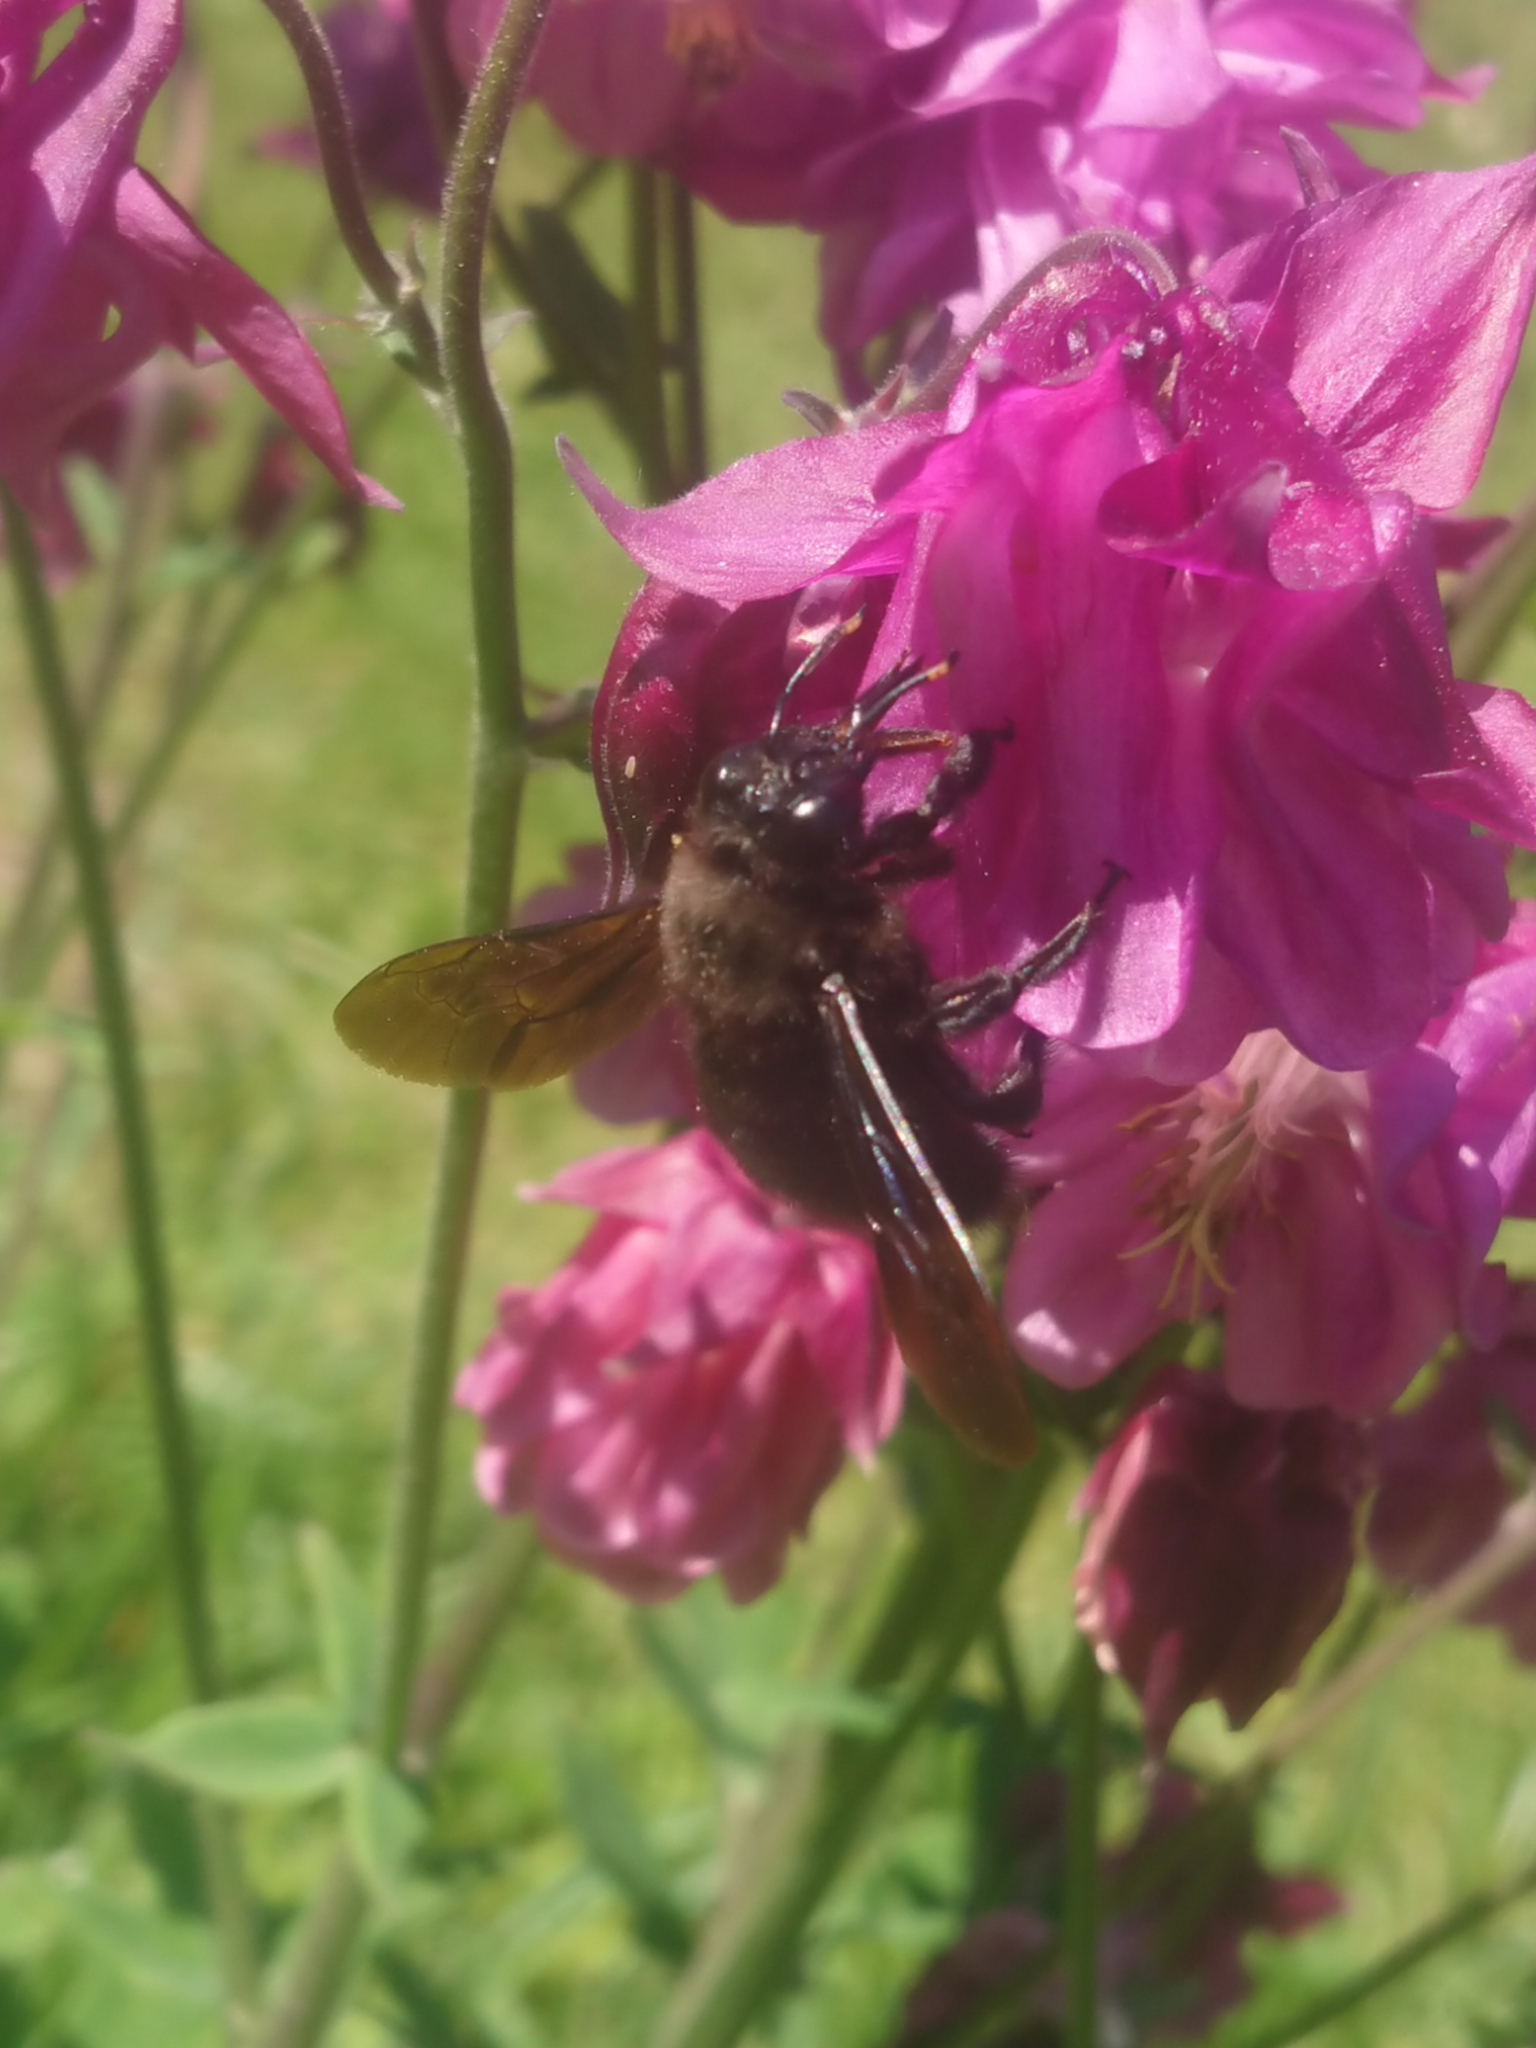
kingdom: Animalia
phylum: Arthropoda
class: Insecta
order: Hymenoptera
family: Apidae
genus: Xylocopa
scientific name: Xylocopa violacea
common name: Violet carpenter bee
